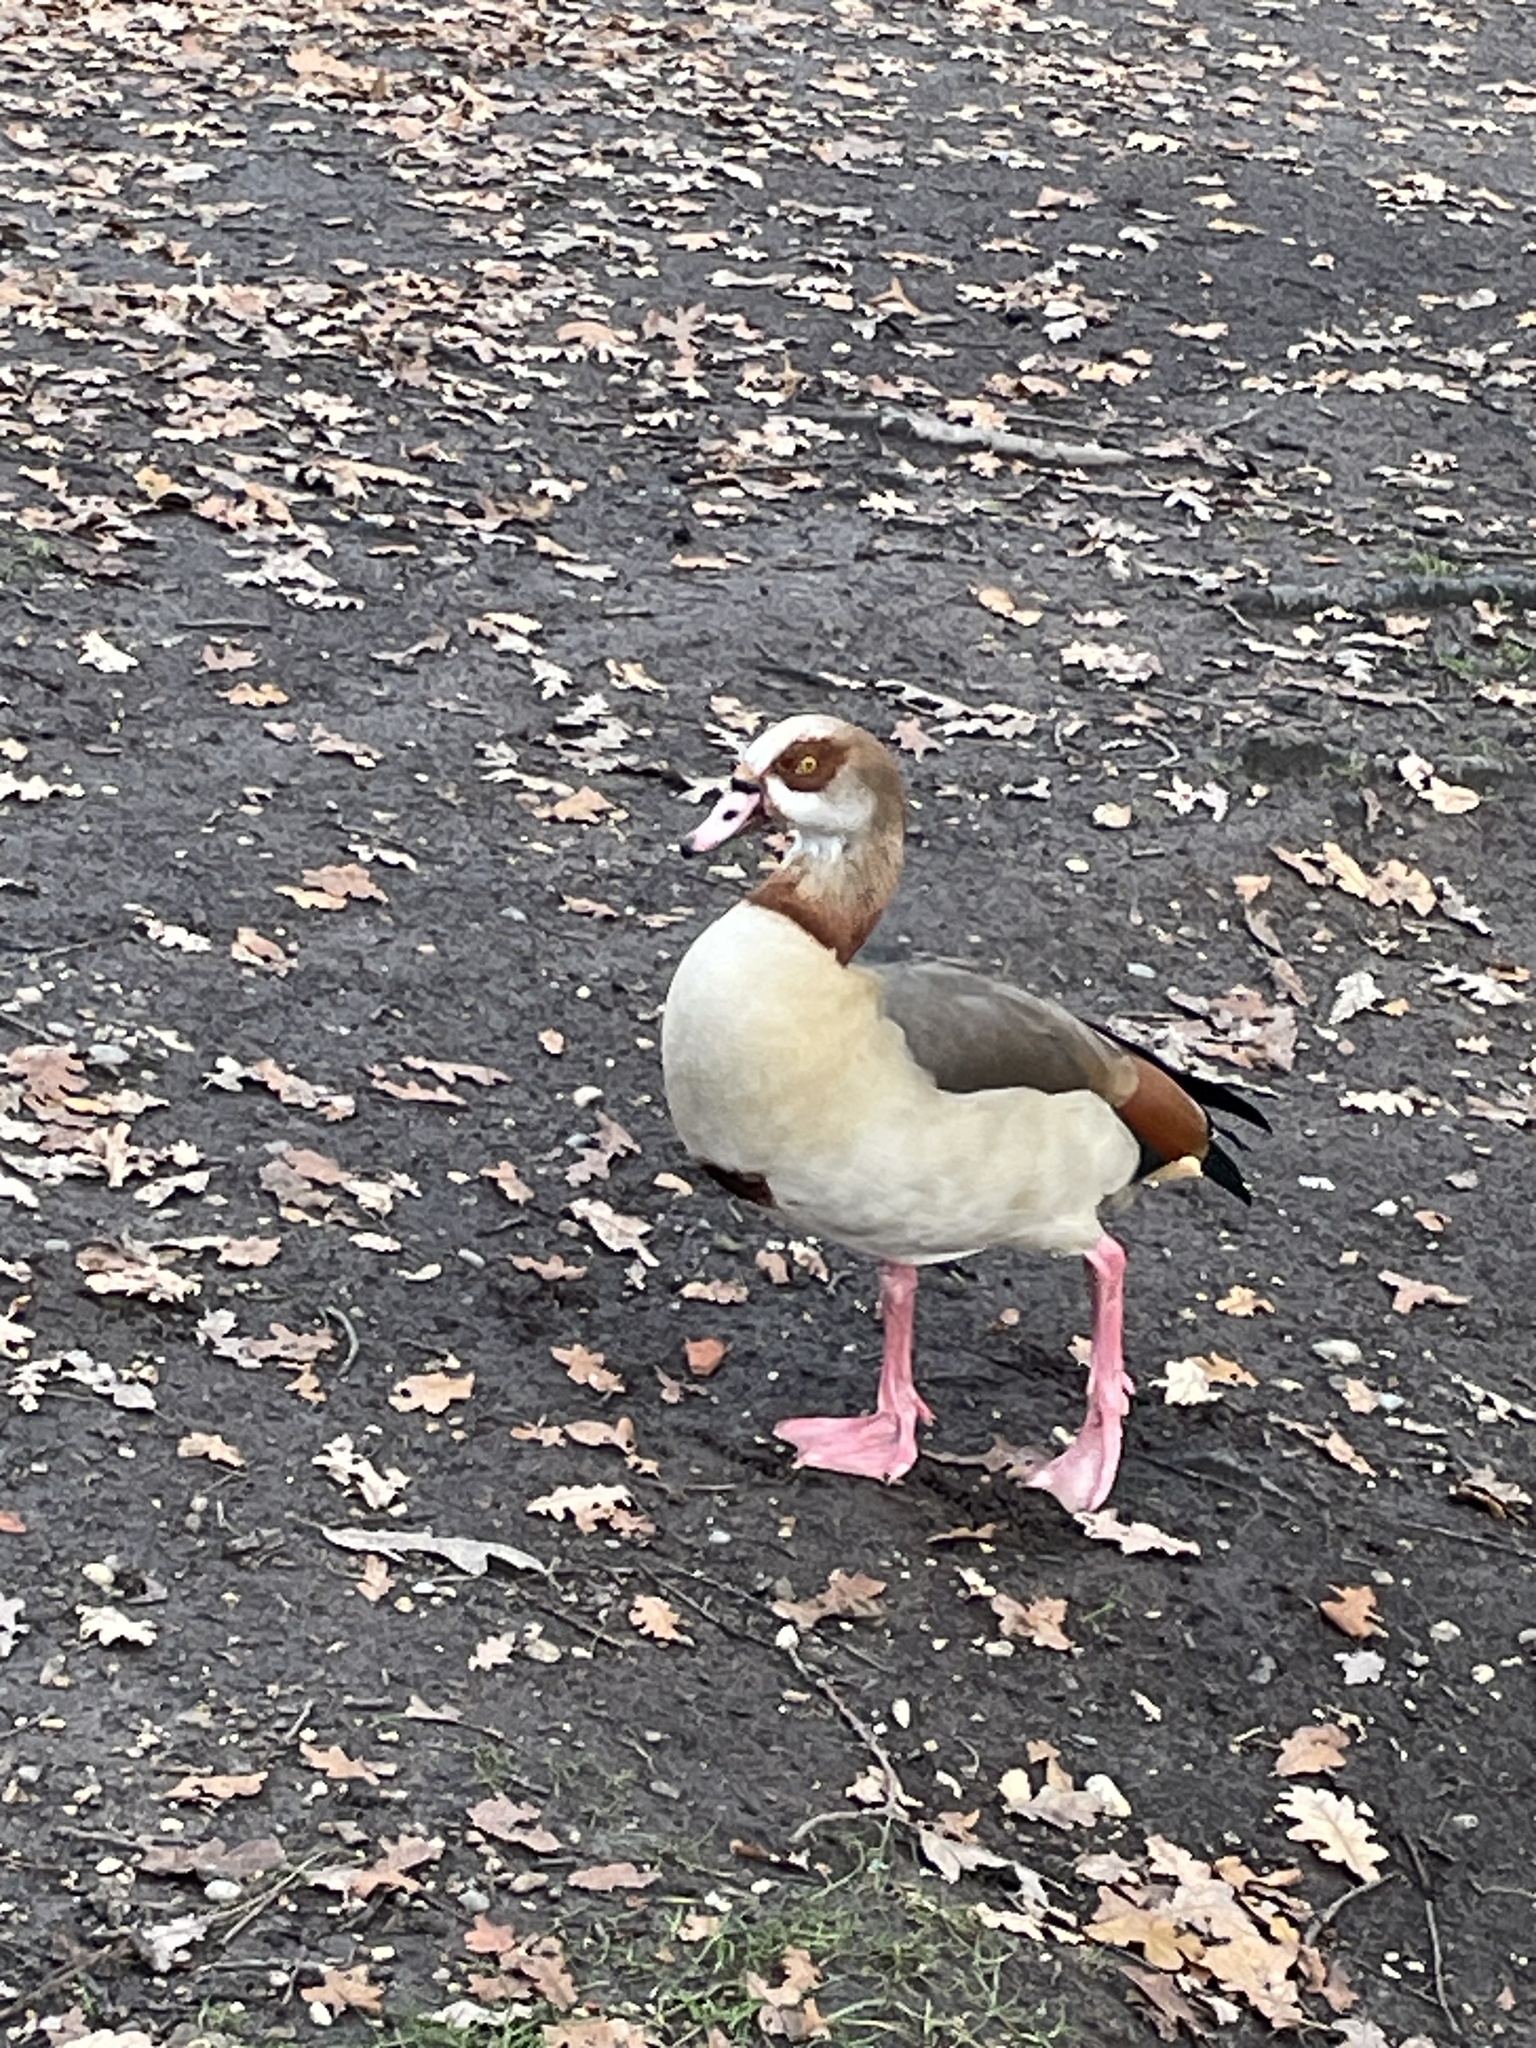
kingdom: Animalia
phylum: Chordata
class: Aves
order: Anseriformes
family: Anatidae
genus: Alopochen
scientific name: Alopochen aegyptiaca
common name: Egyptian goose
